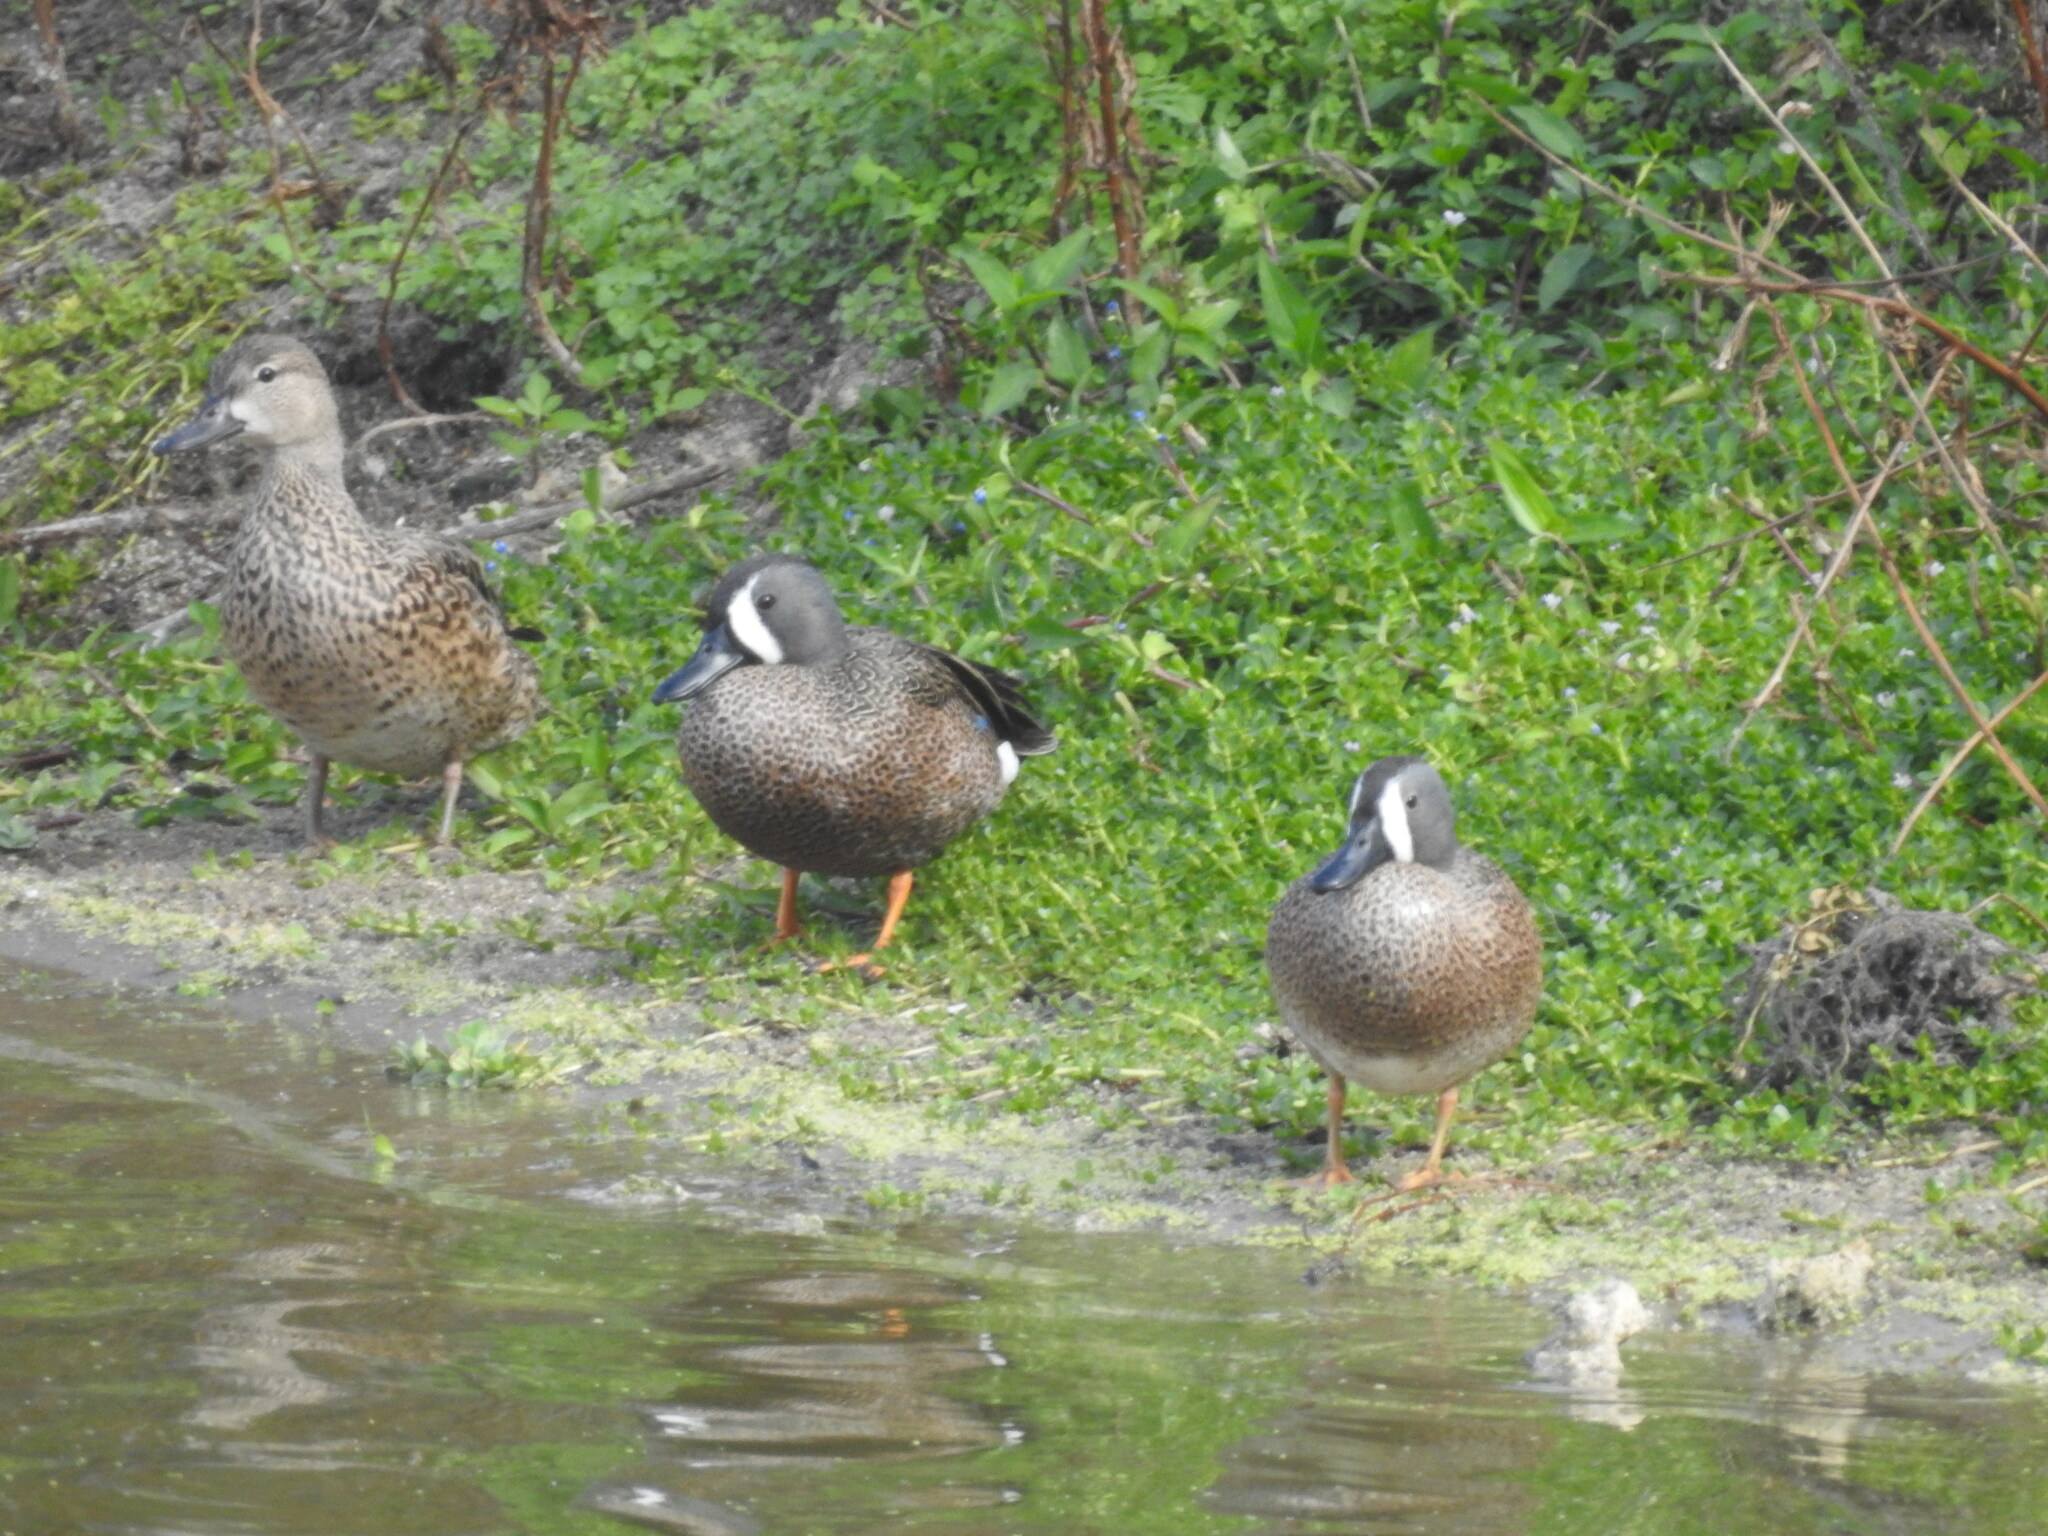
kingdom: Animalia
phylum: Chordata
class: Aves
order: Anseriformes
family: Anatidae
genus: Spatula
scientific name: Spatula discors
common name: Blue-winged teal
